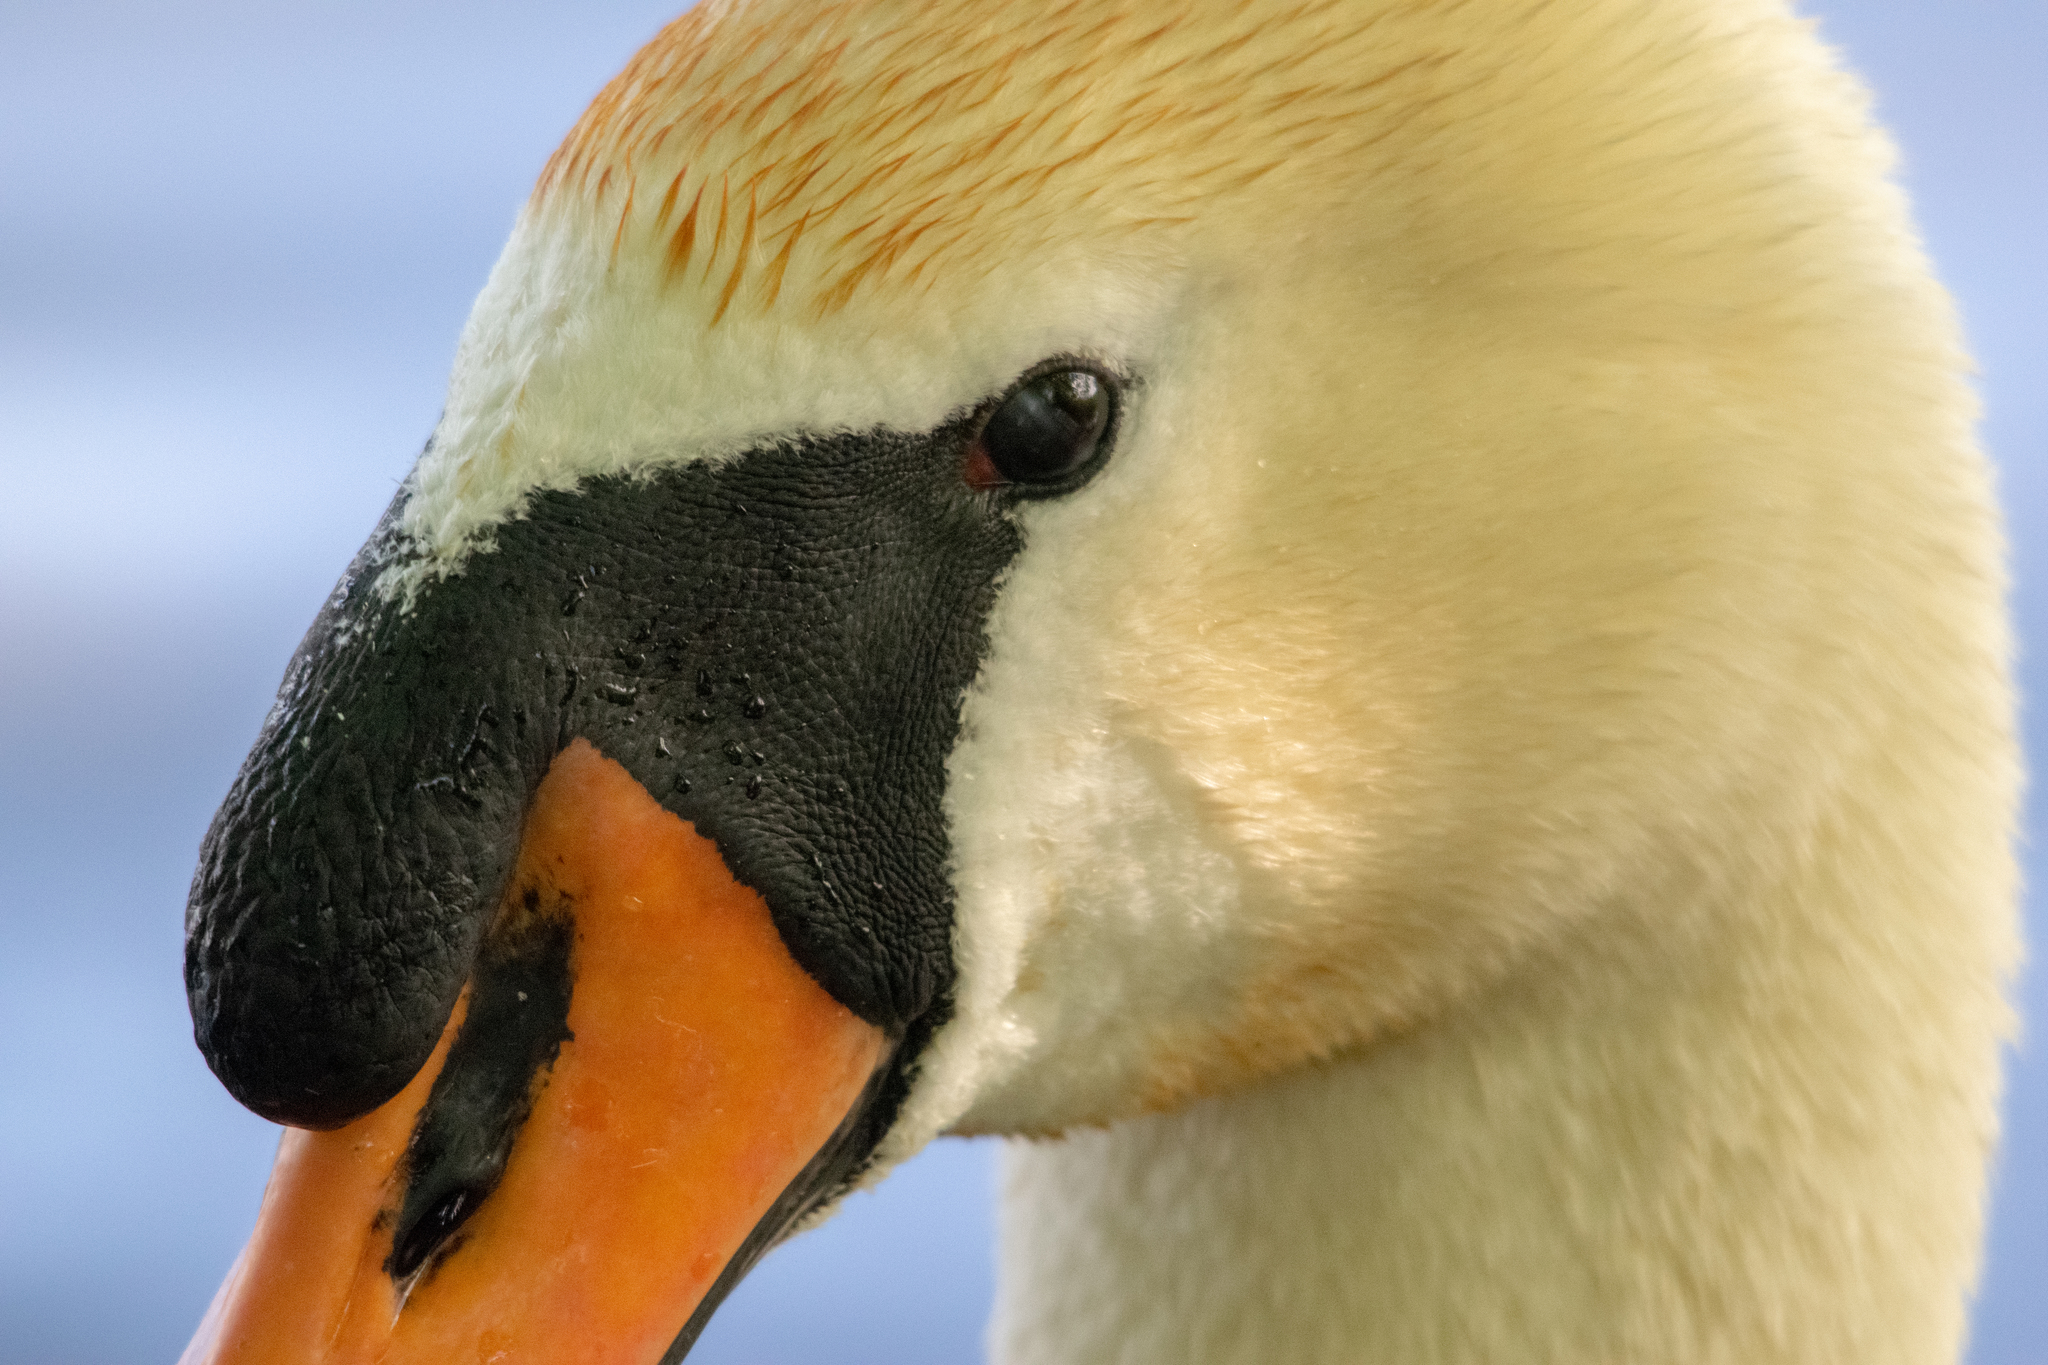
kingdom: Animalia
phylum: Chordata
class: Aves
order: Anseriformes
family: Anatidae
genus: Cygnus
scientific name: Cygnus olor
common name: Mute swan
